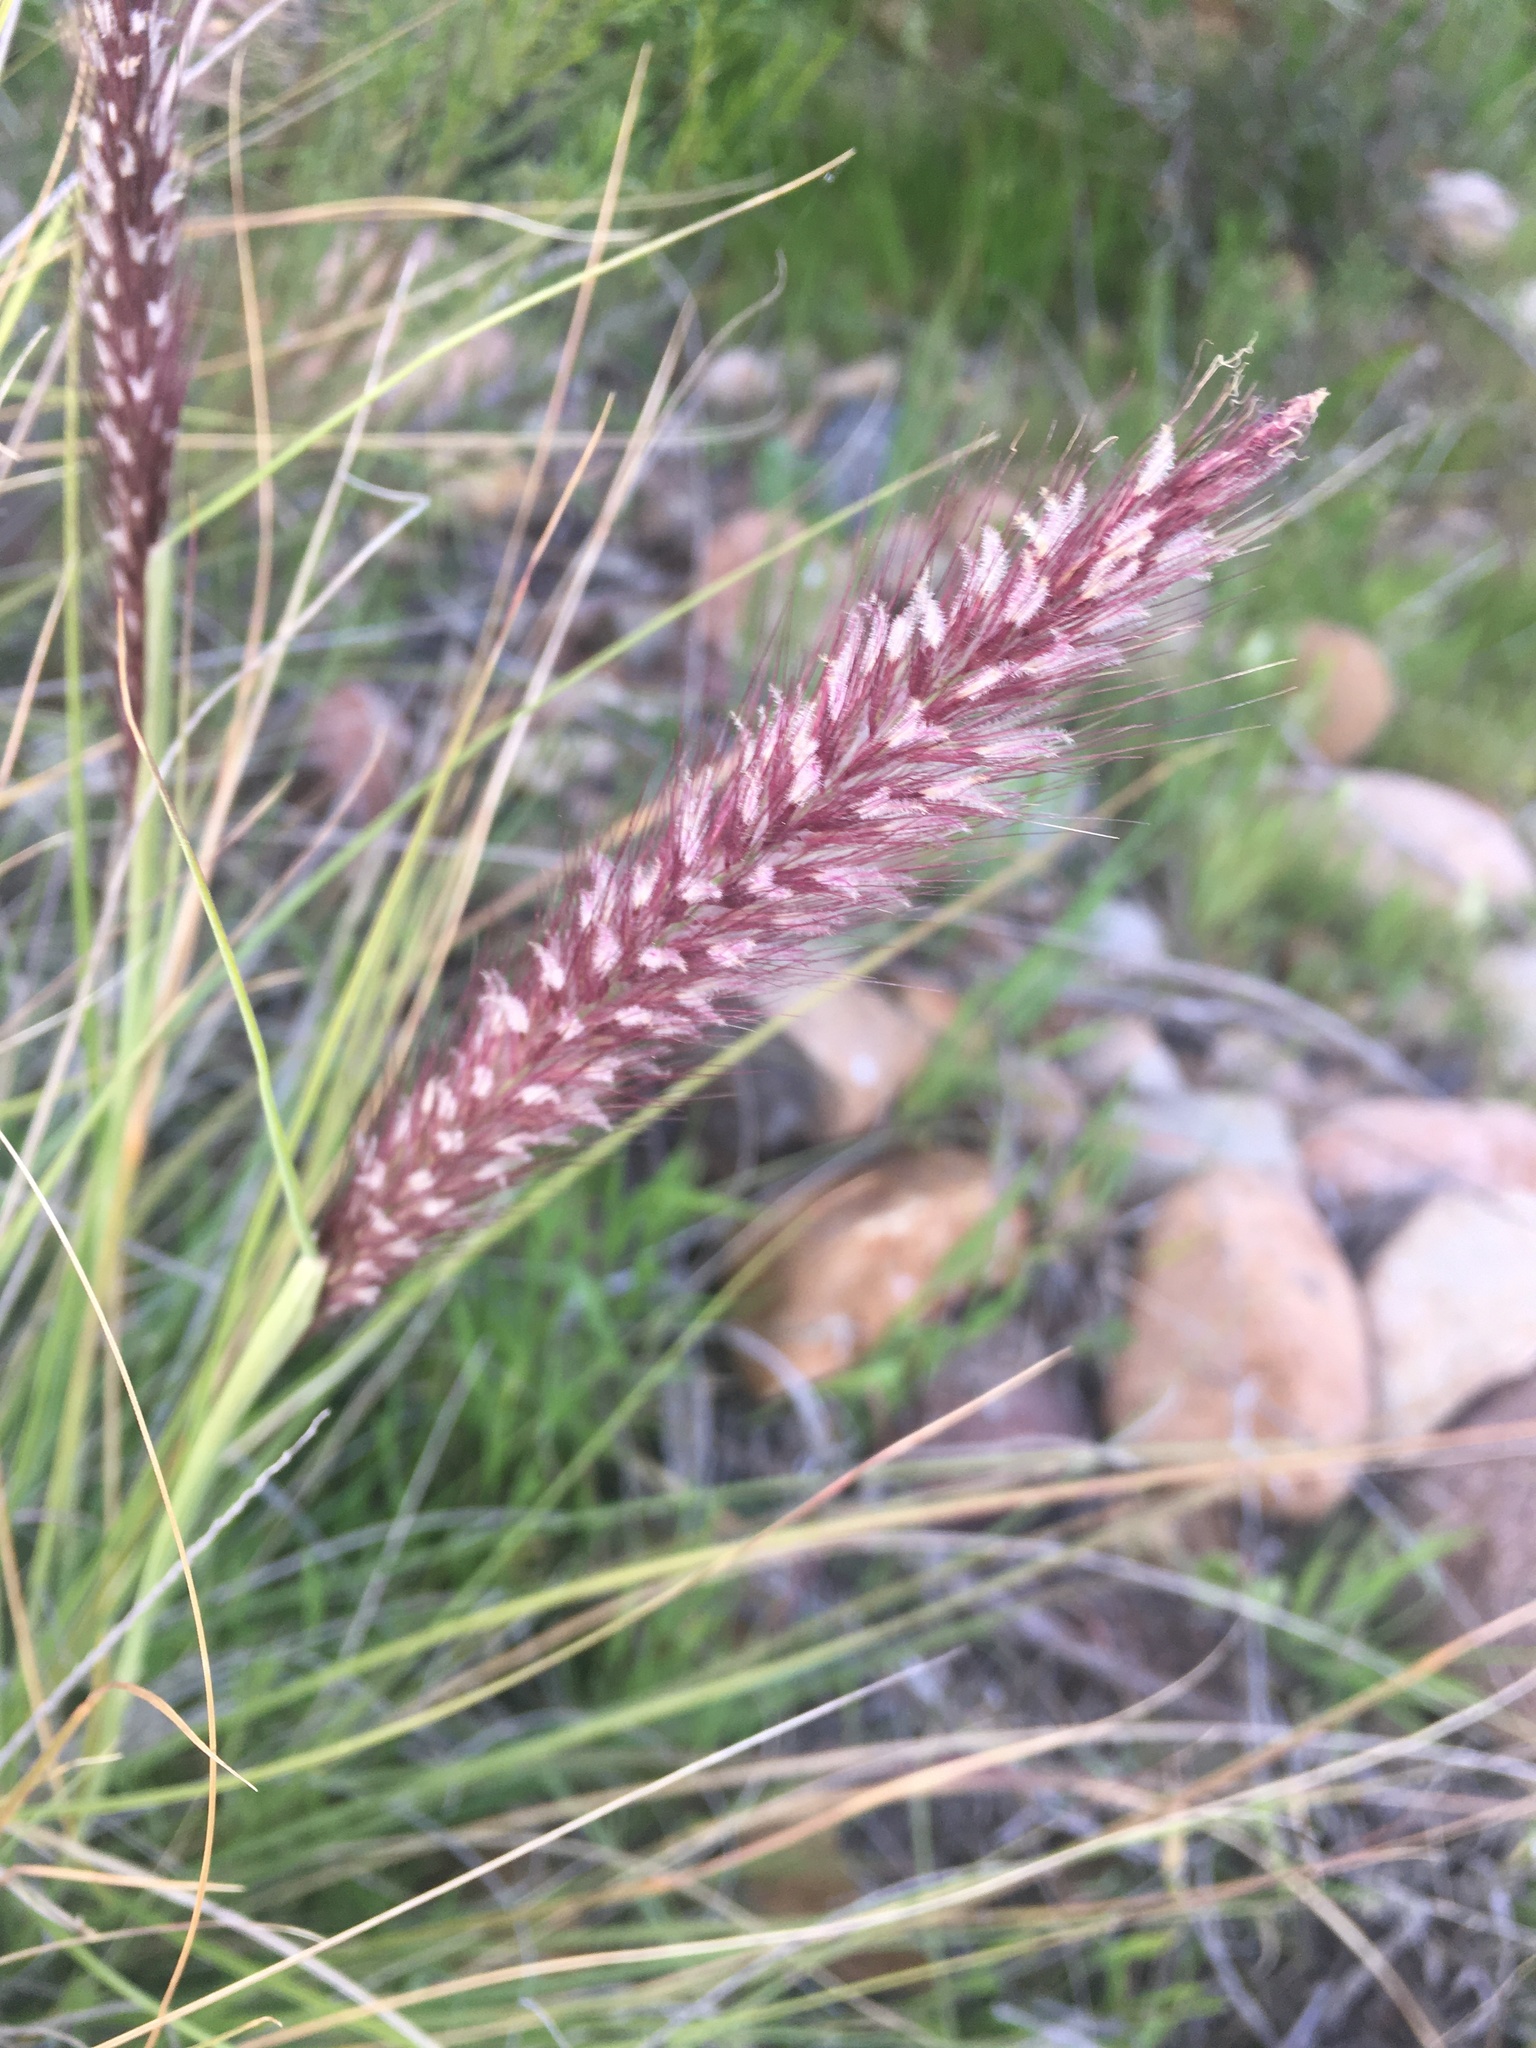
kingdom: Plantae
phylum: Tracheophyta
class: Liliopsida
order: Poales
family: Poaceae
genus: Cenchrus
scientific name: Cenchrus setaceus
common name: Crimson fountaingrass
